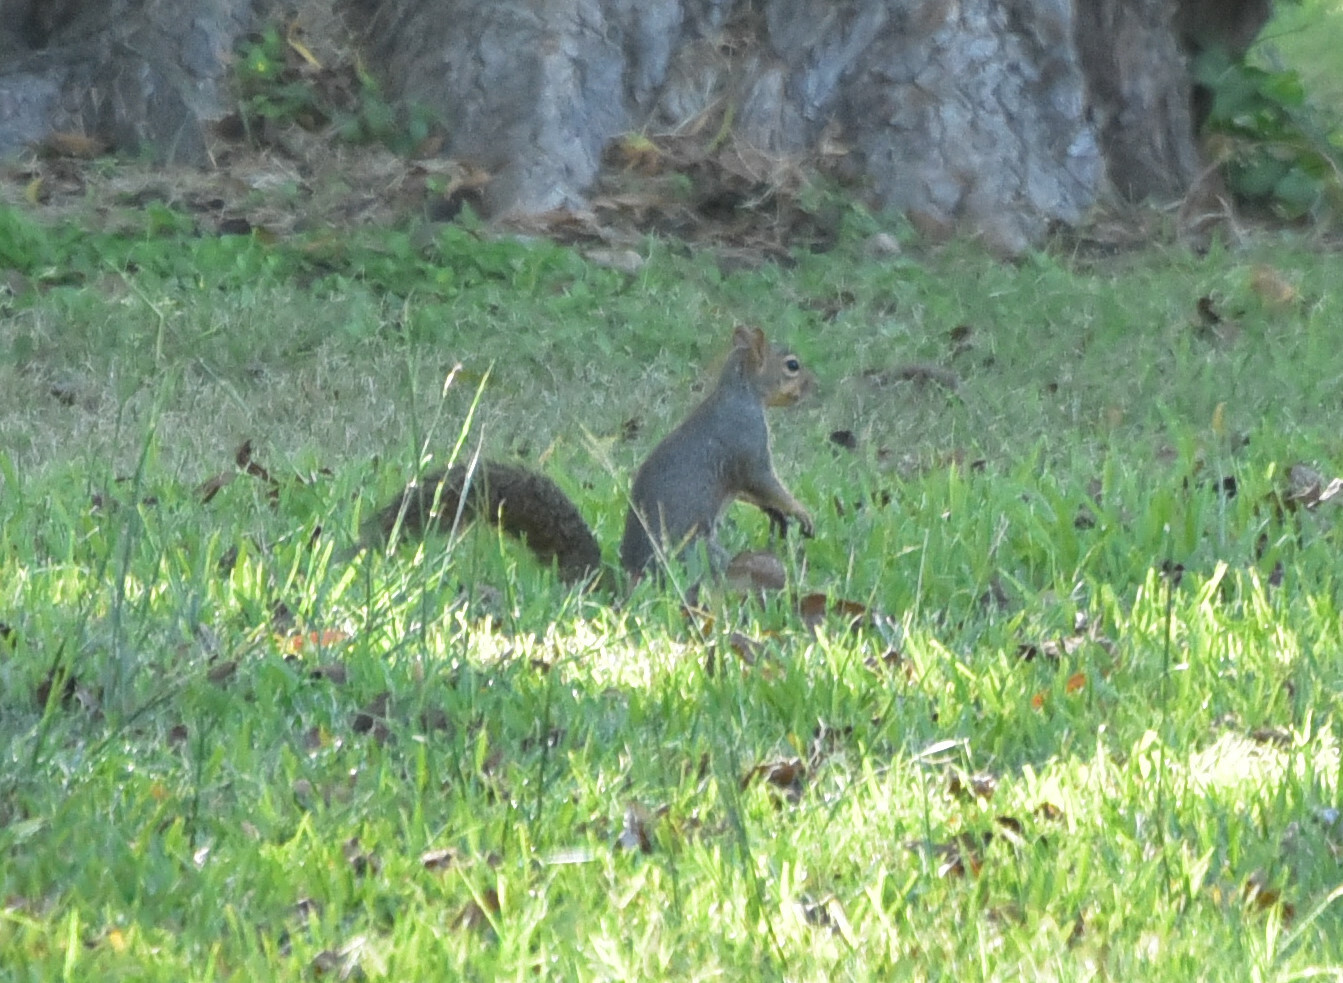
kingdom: Animalia
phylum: Chordata
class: Mammalia
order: Rodentia
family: Sciuridae
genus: Sciurus
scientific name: Sciurus niger
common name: Fox squirrel
